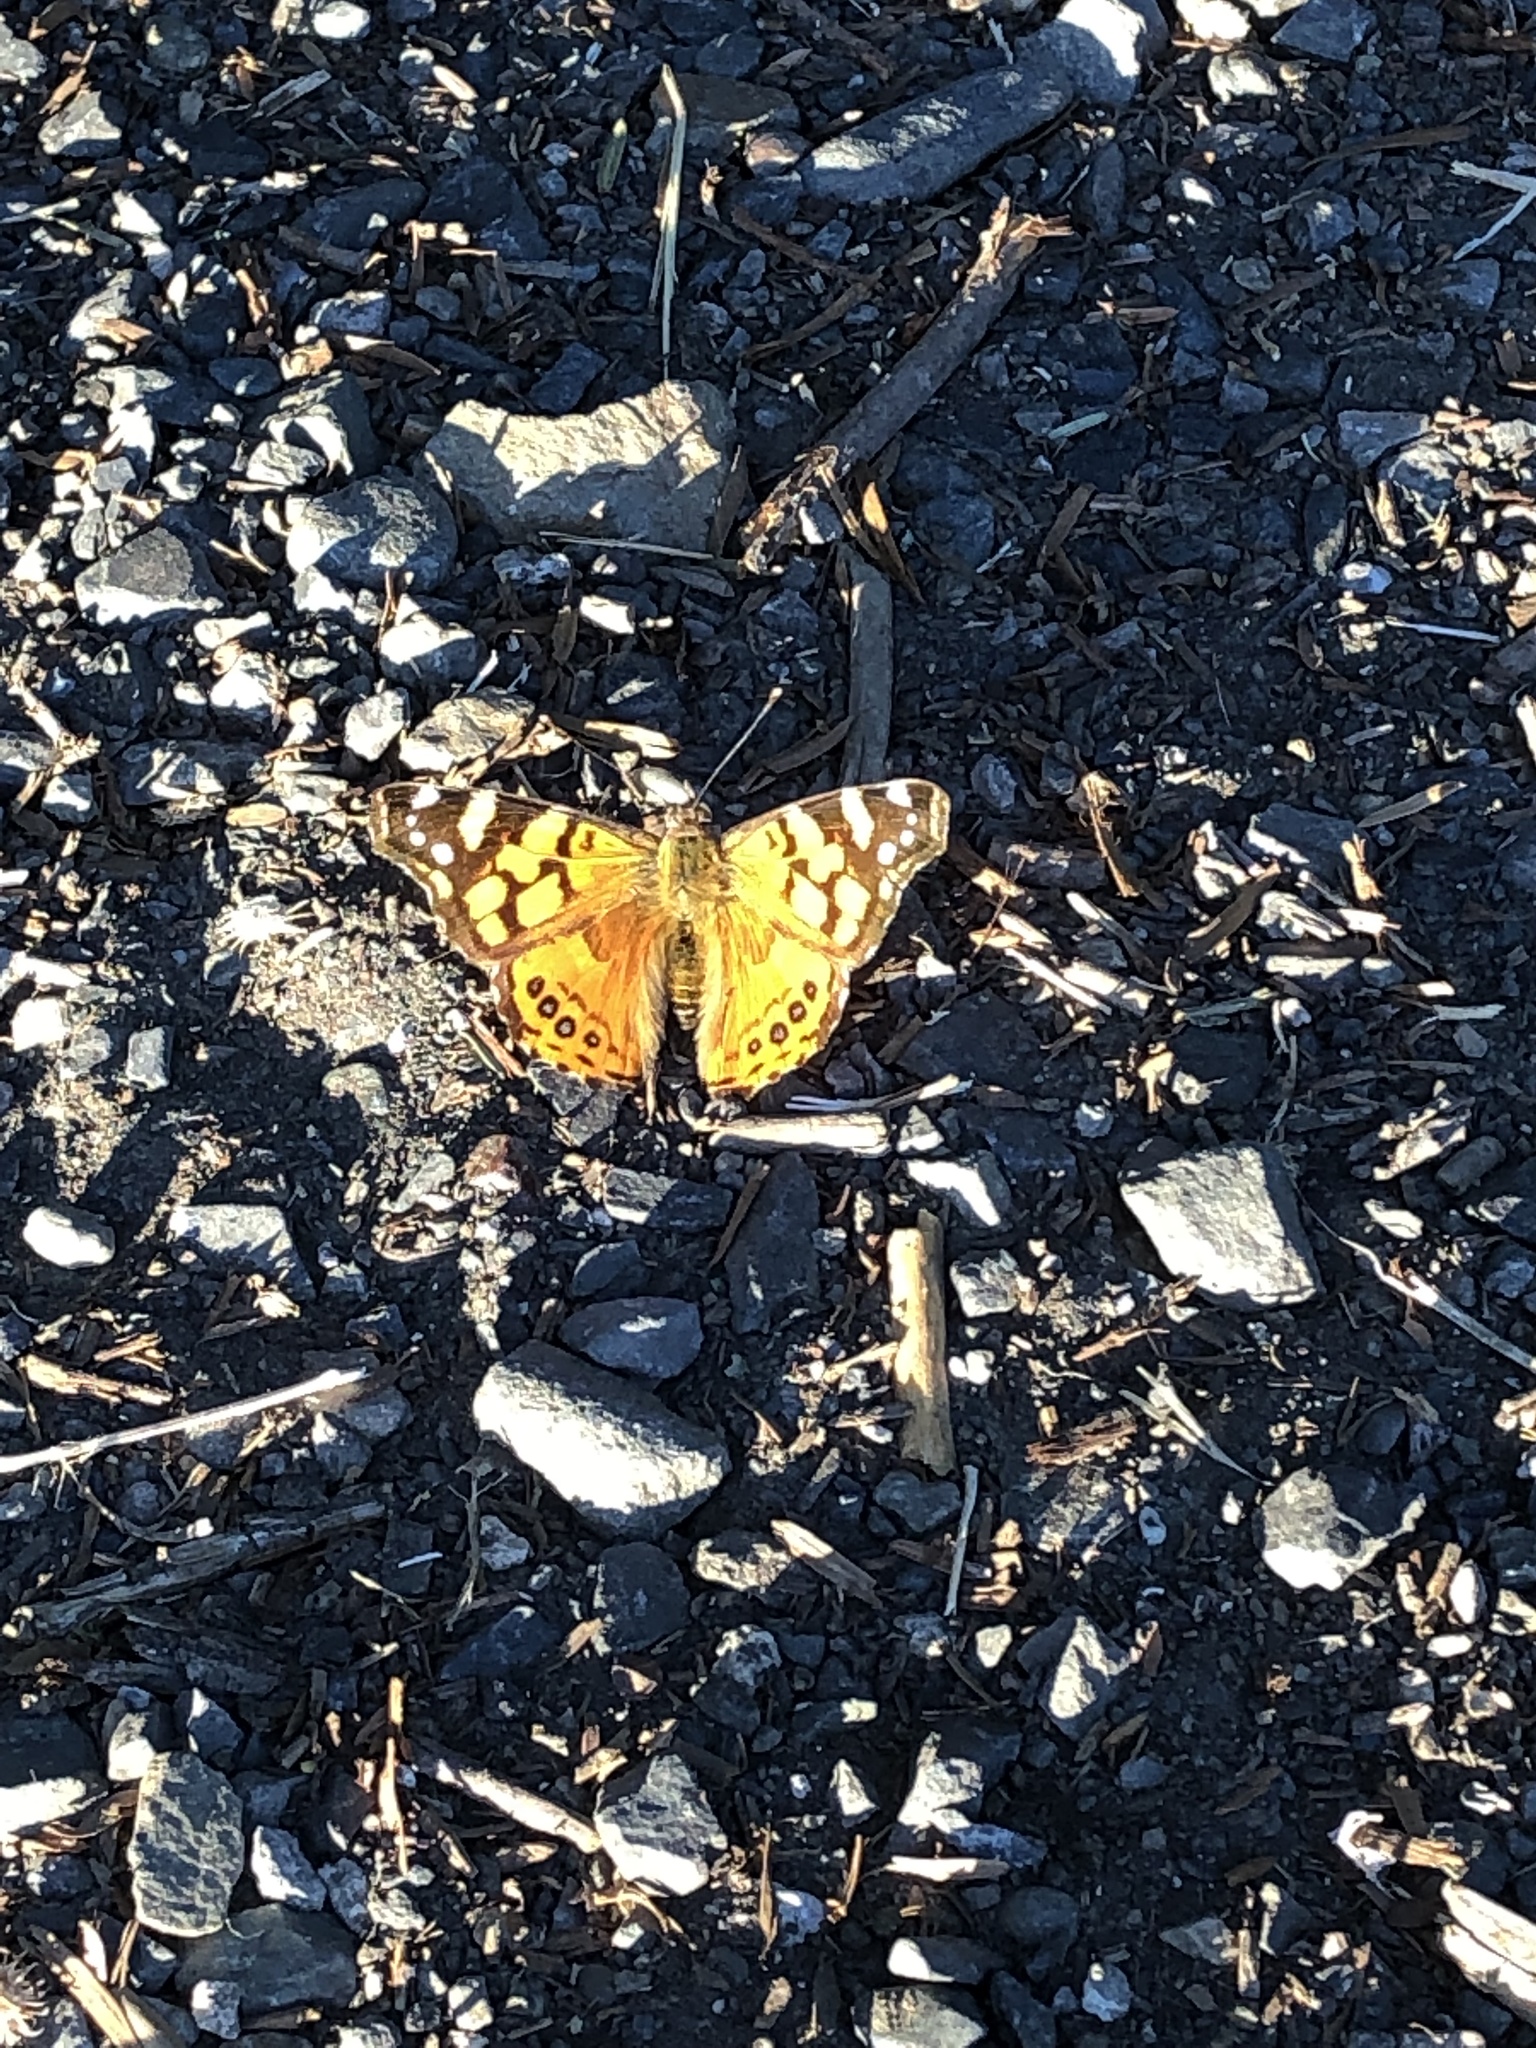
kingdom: Animalia
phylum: Arthropoda
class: Insecta
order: Lepidoptera
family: Nymphalidae
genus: Vanessa
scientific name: Vanessa annabella
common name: West coast lady
